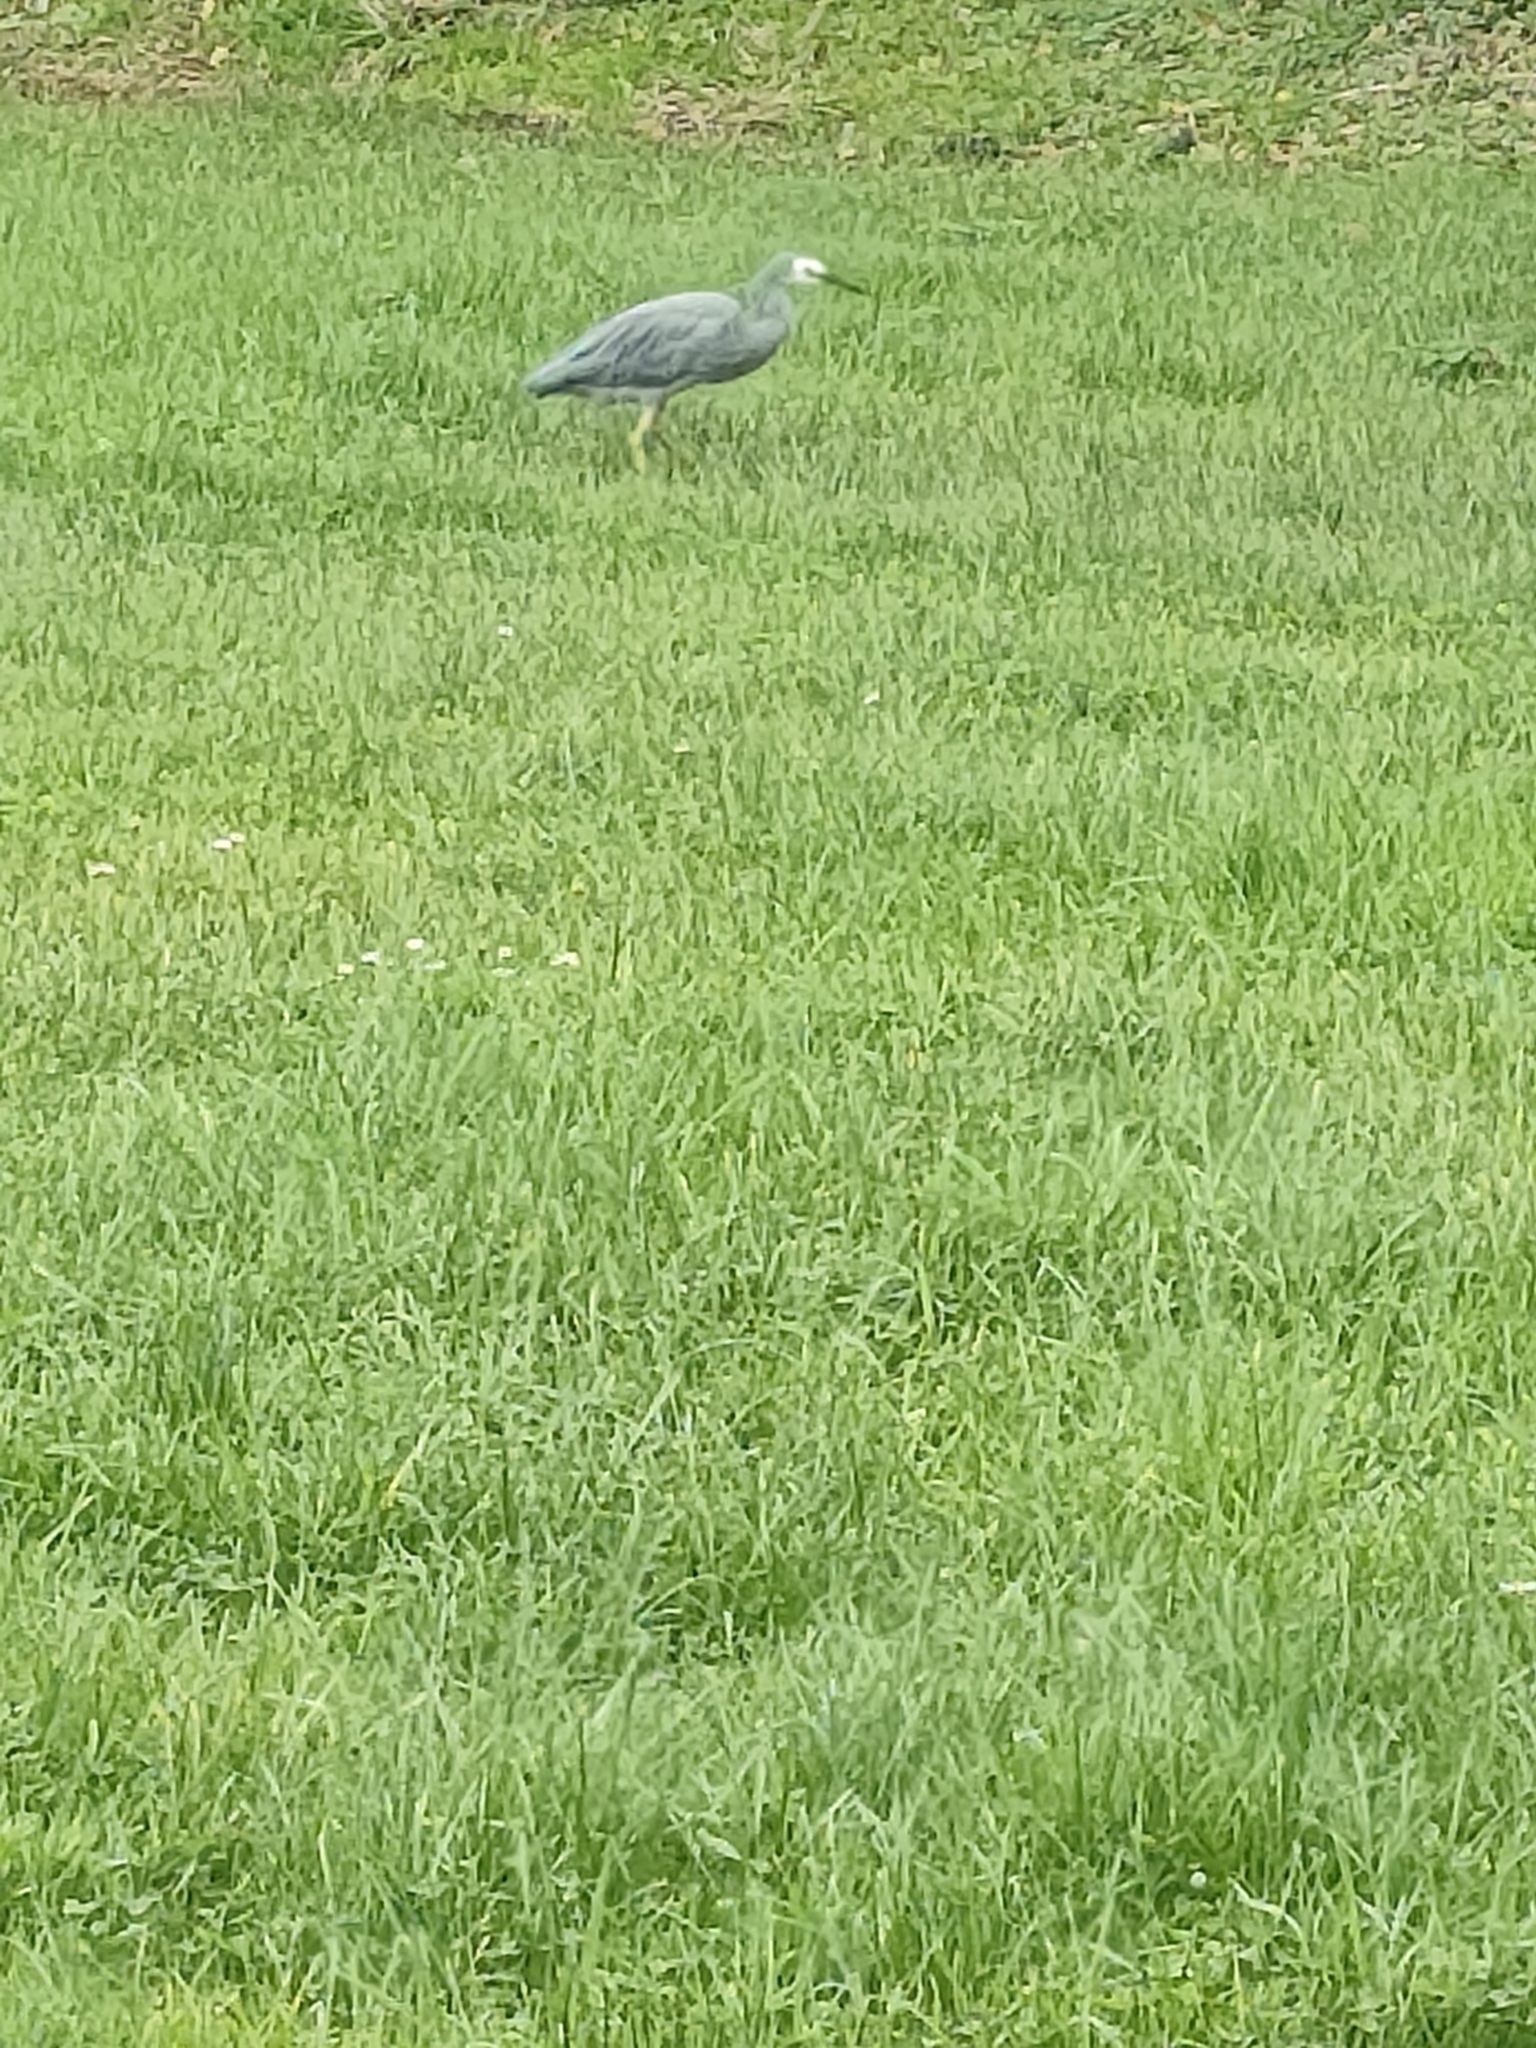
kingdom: Animalia
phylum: Chordata
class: Aves
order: Pelecaniformes
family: Ardeidae
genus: Egretta
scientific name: Egretta novaehollandiae
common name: White-faced heron
